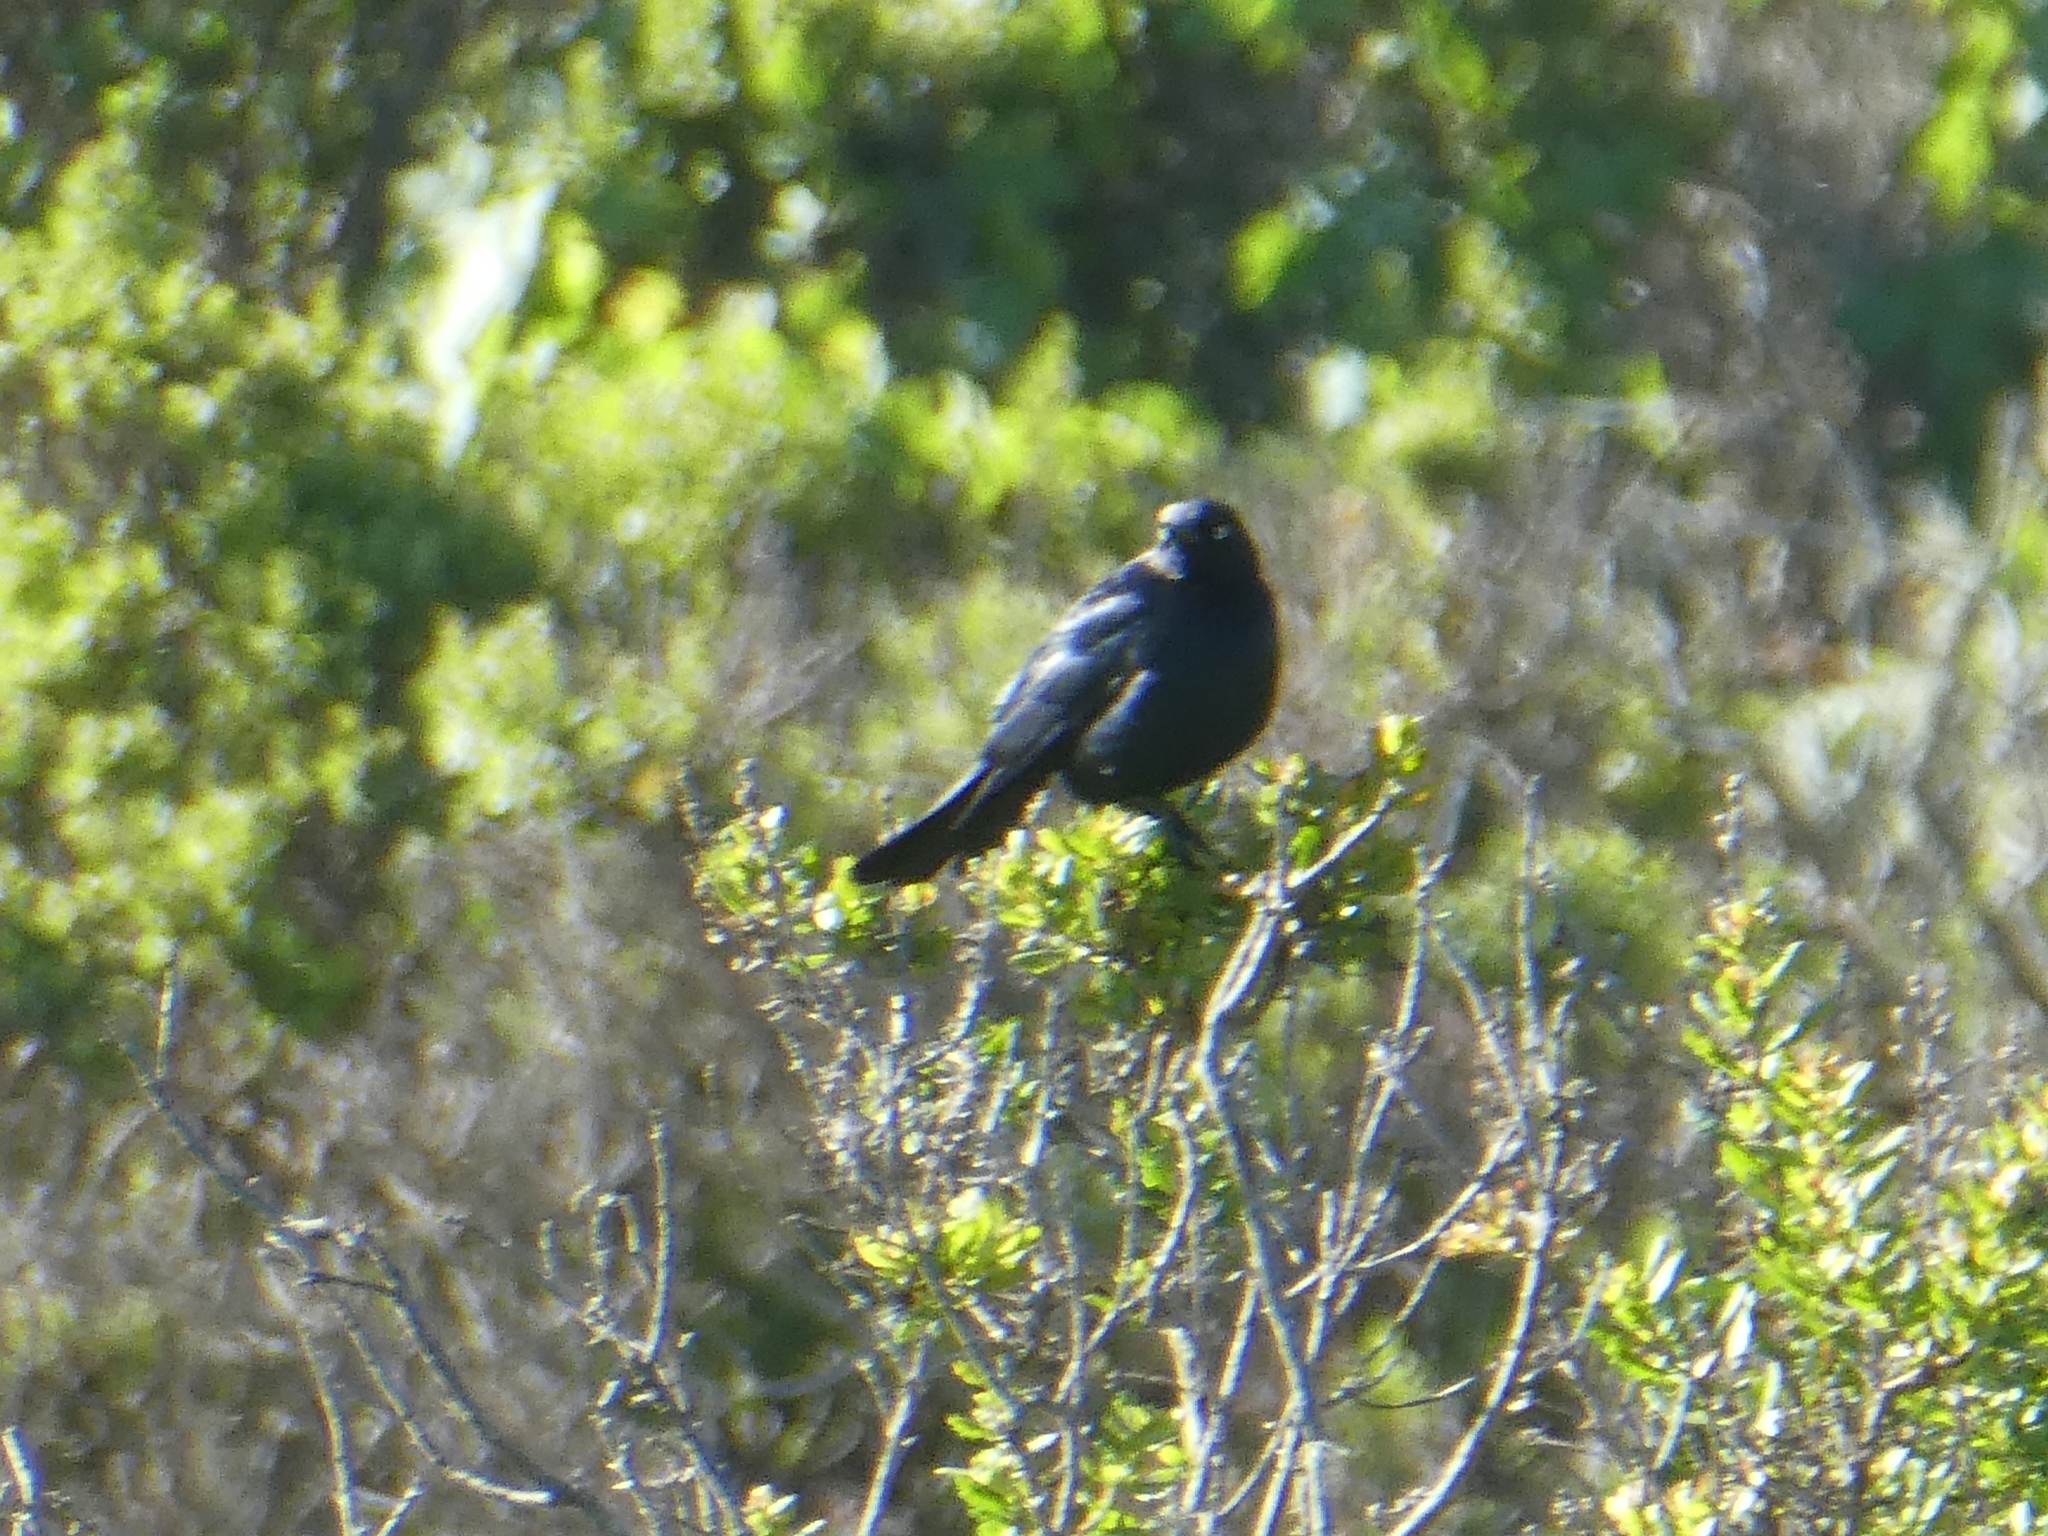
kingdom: Animalia
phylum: Chordata
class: Aves
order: Passeriformes
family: Icteridae
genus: Euphagus
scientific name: Euphagus cyanocephalus
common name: Brewer's blackbird
